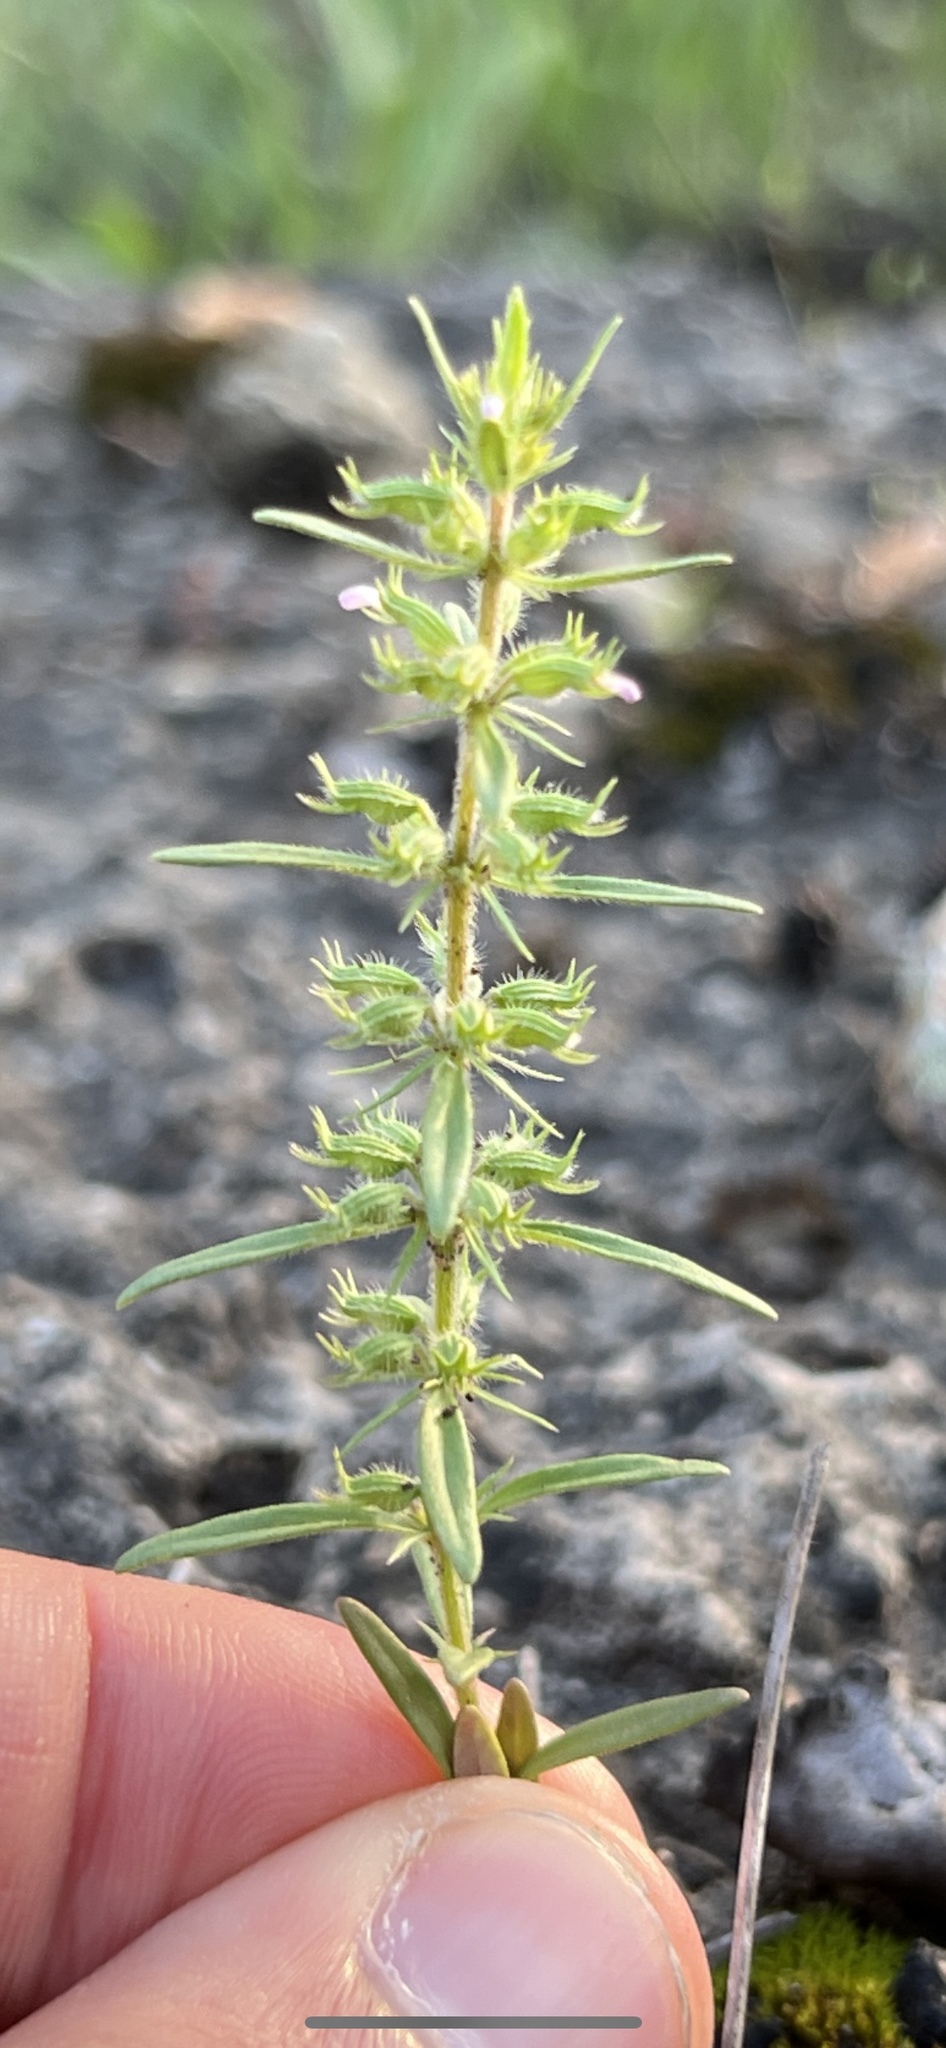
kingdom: Plantae
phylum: Tracheophyta
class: Magnoliopsida
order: Lamiales
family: Lamiaceae
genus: Hedeoma
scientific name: Hedeoma hispida
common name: Mock pennyroyal
